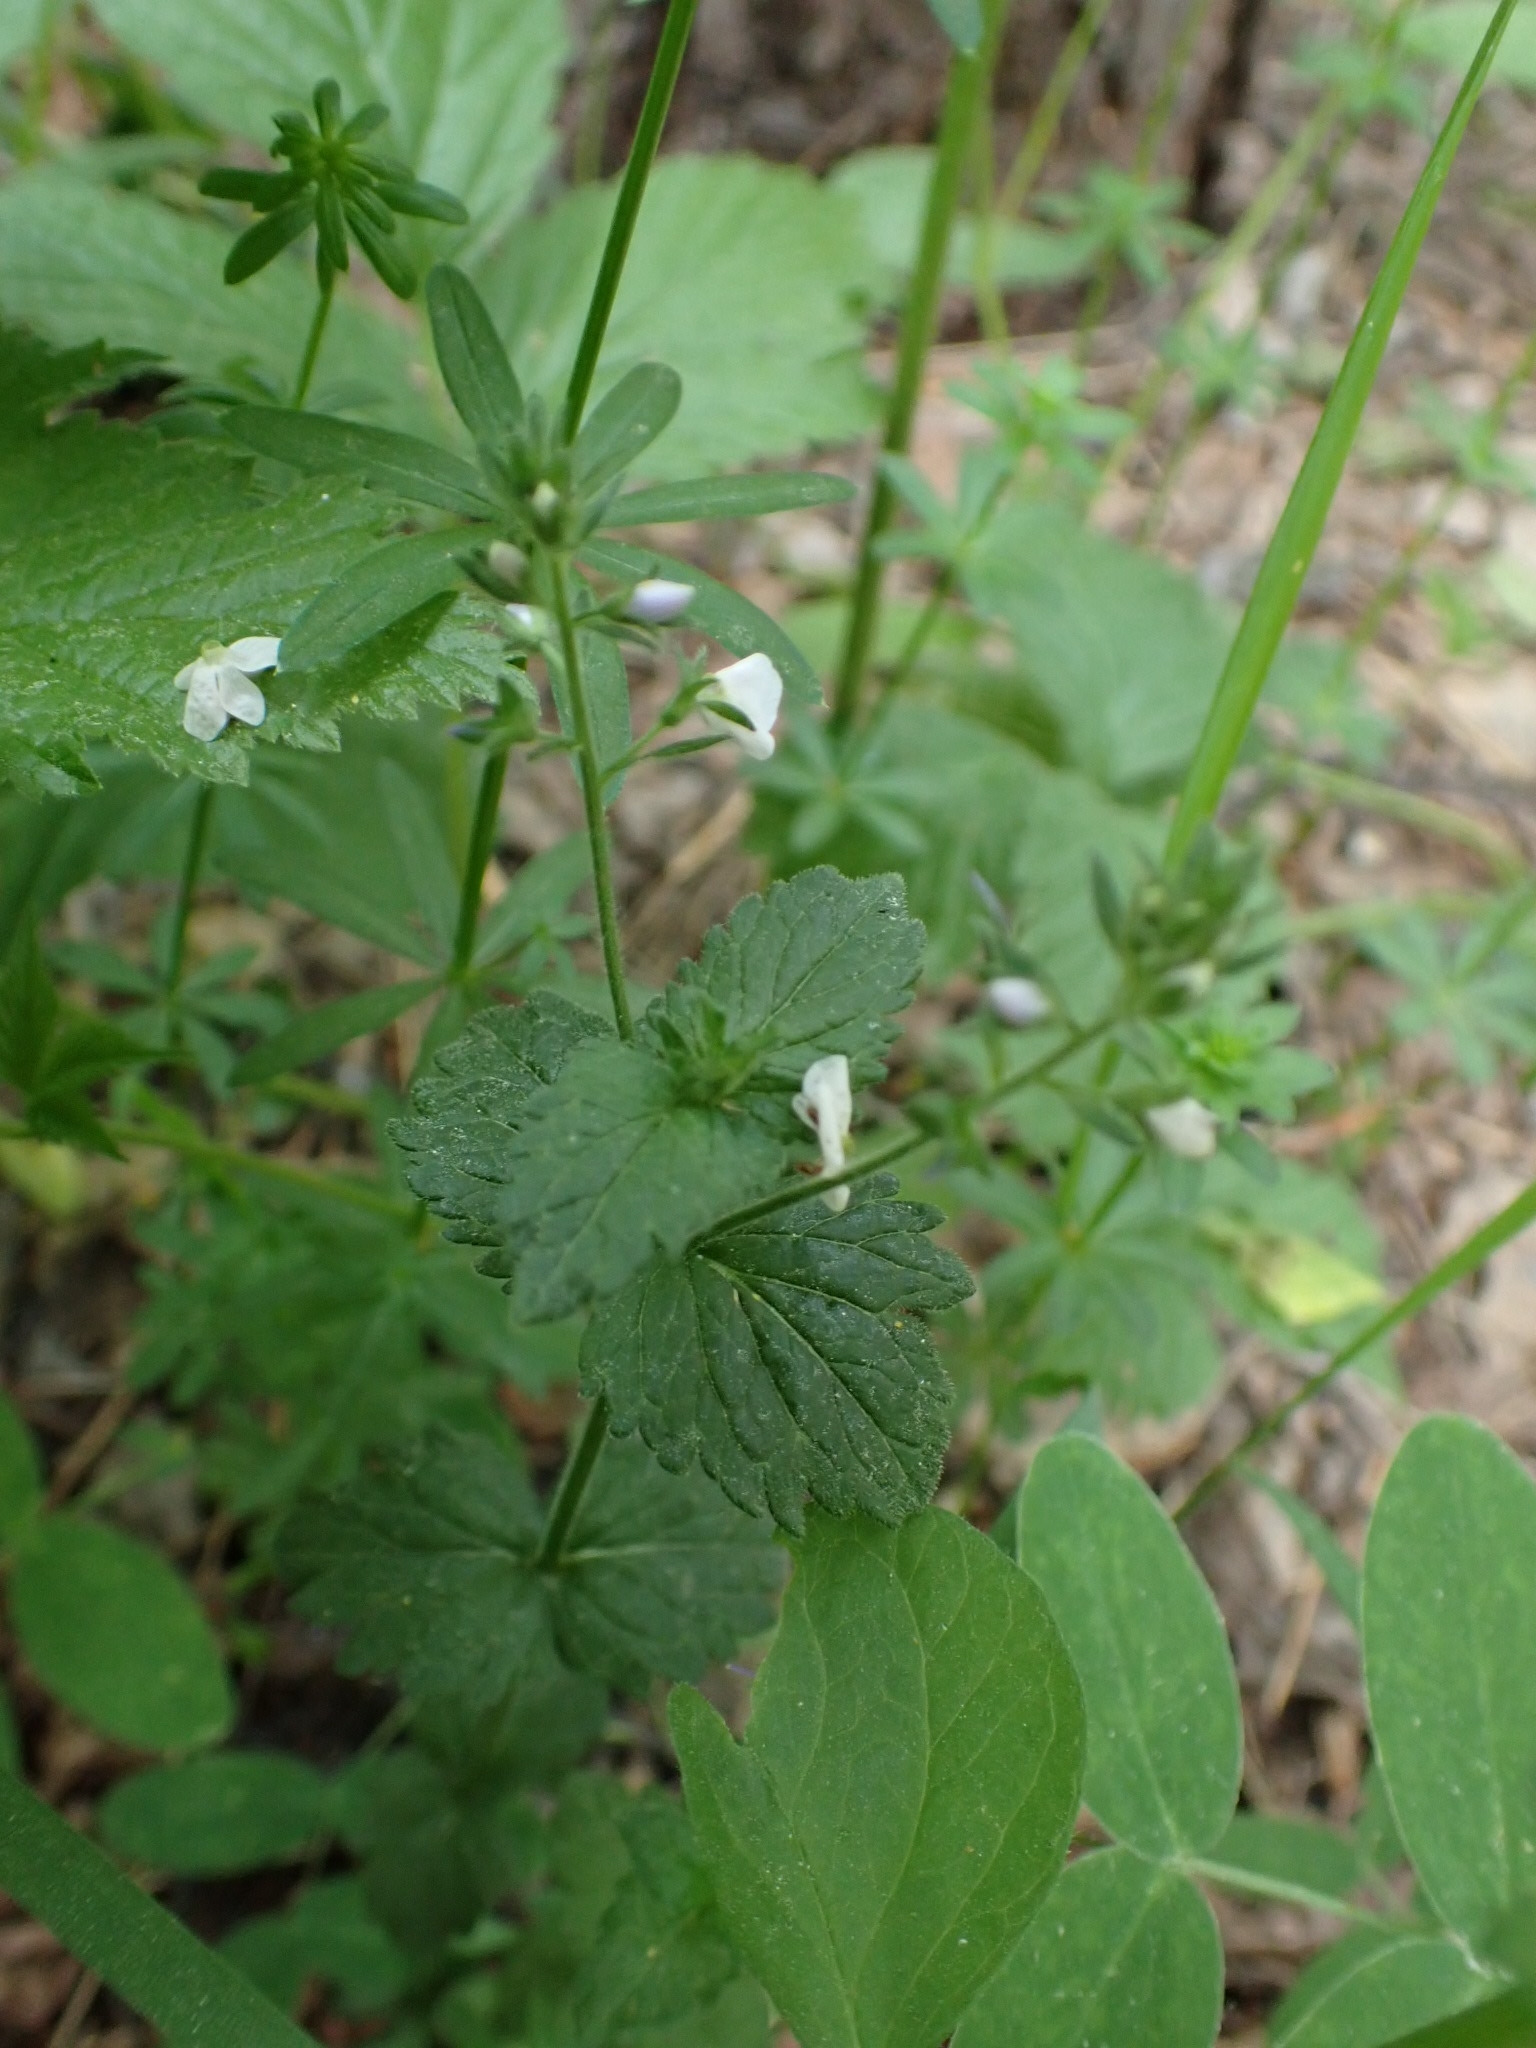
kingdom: Plantae
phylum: Tracheophyta
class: Magnoliopsida
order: Rosales
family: Rosaceae
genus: Rubus
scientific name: Rubus saxatilis
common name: Stone bramble
